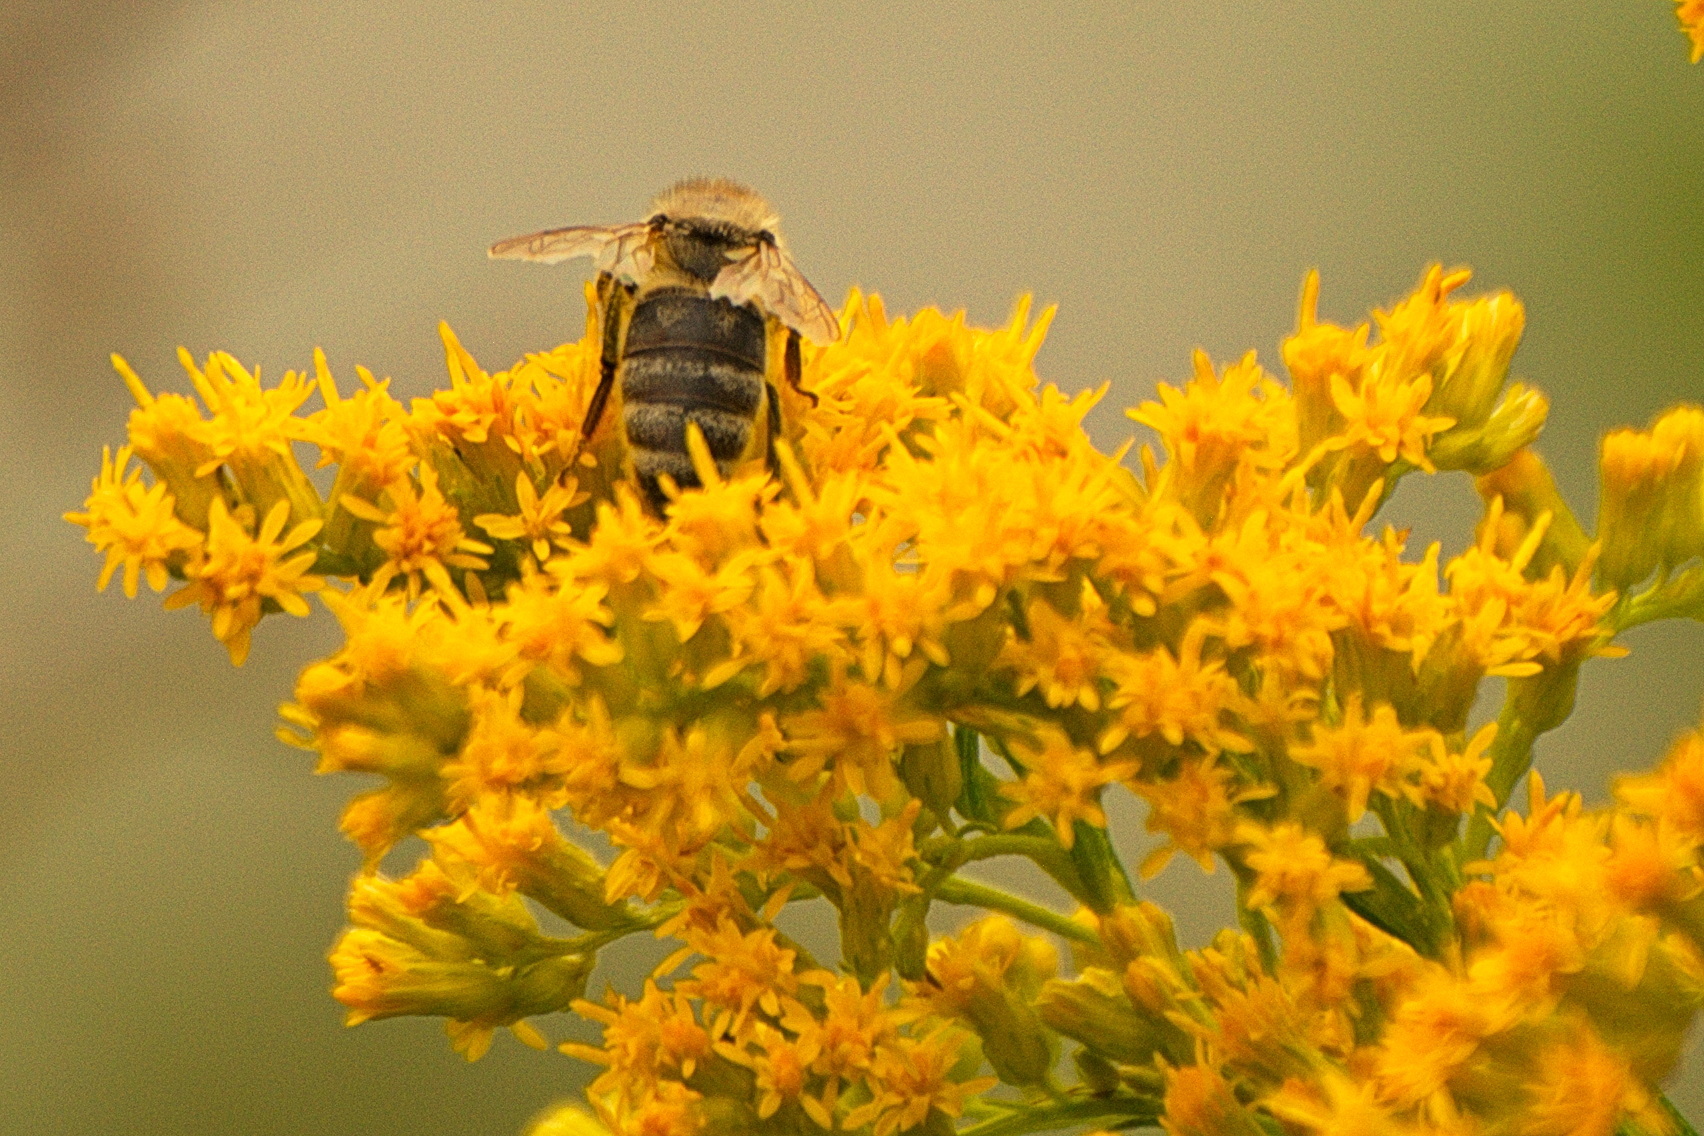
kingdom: Animalia
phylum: Arthropoda
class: Insecta
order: Hymenoptera
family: Apidae
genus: Apis
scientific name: Apis mellifera
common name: Honey bee
